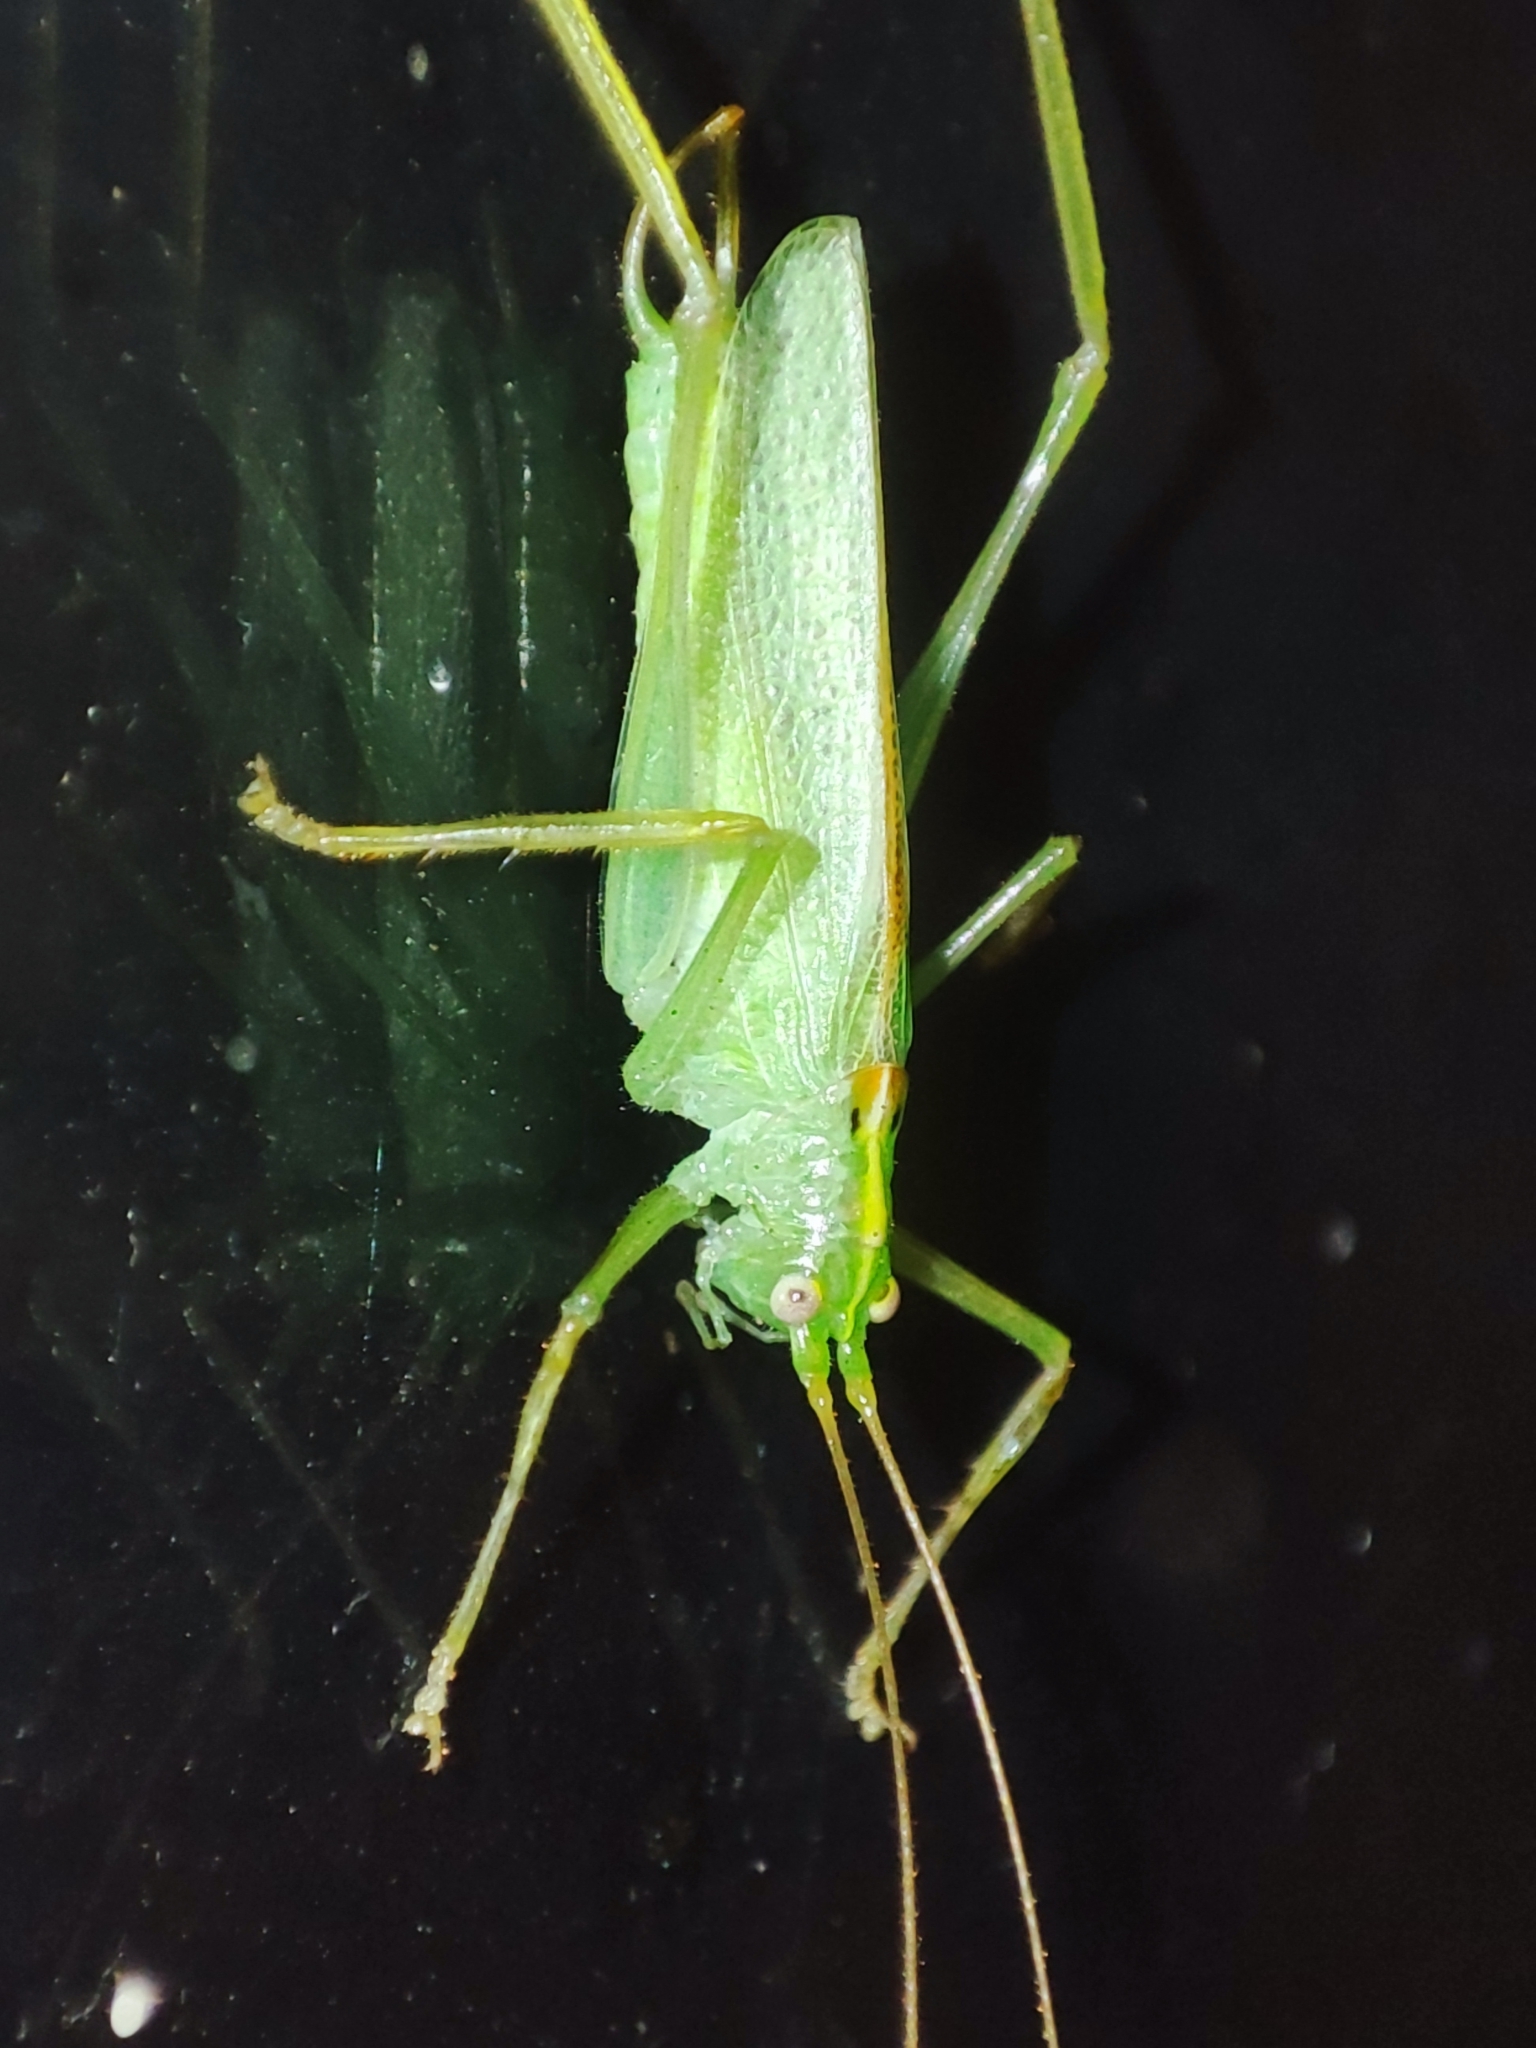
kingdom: Animalia
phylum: Arthropoda
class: Insecta
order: Orthoptera
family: Tettigoniidae
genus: Meconema
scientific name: Meconema thalassinum
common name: Oak bush-cricket
